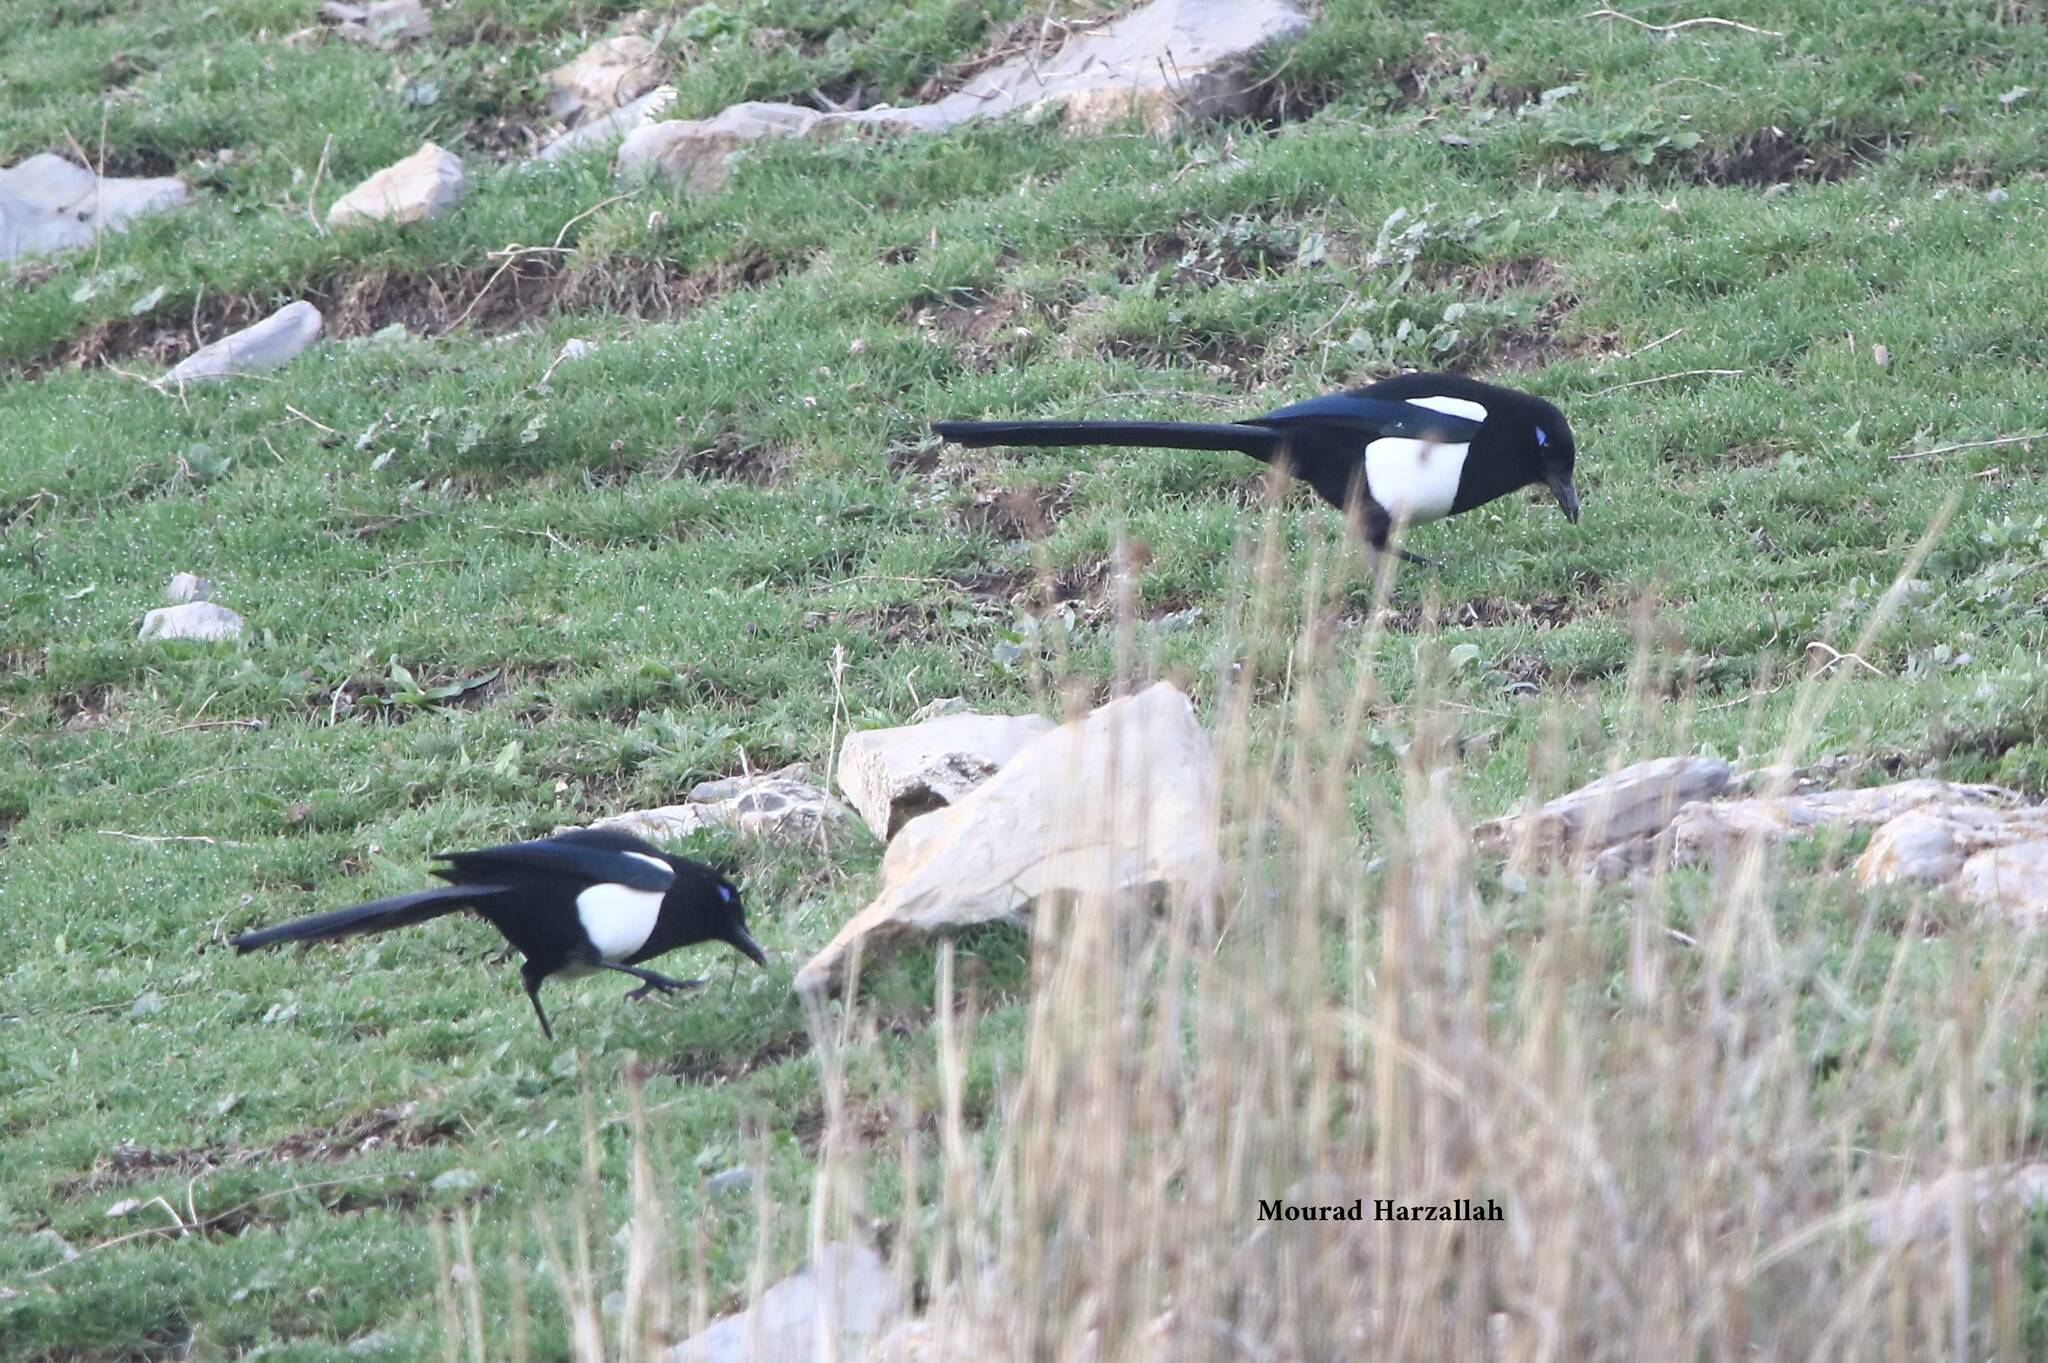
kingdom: Animalia
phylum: Chordata
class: Aves
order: Passeriformes
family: Corvidae
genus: Pica
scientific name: Pica mauritanica
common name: Maghreb magpie
